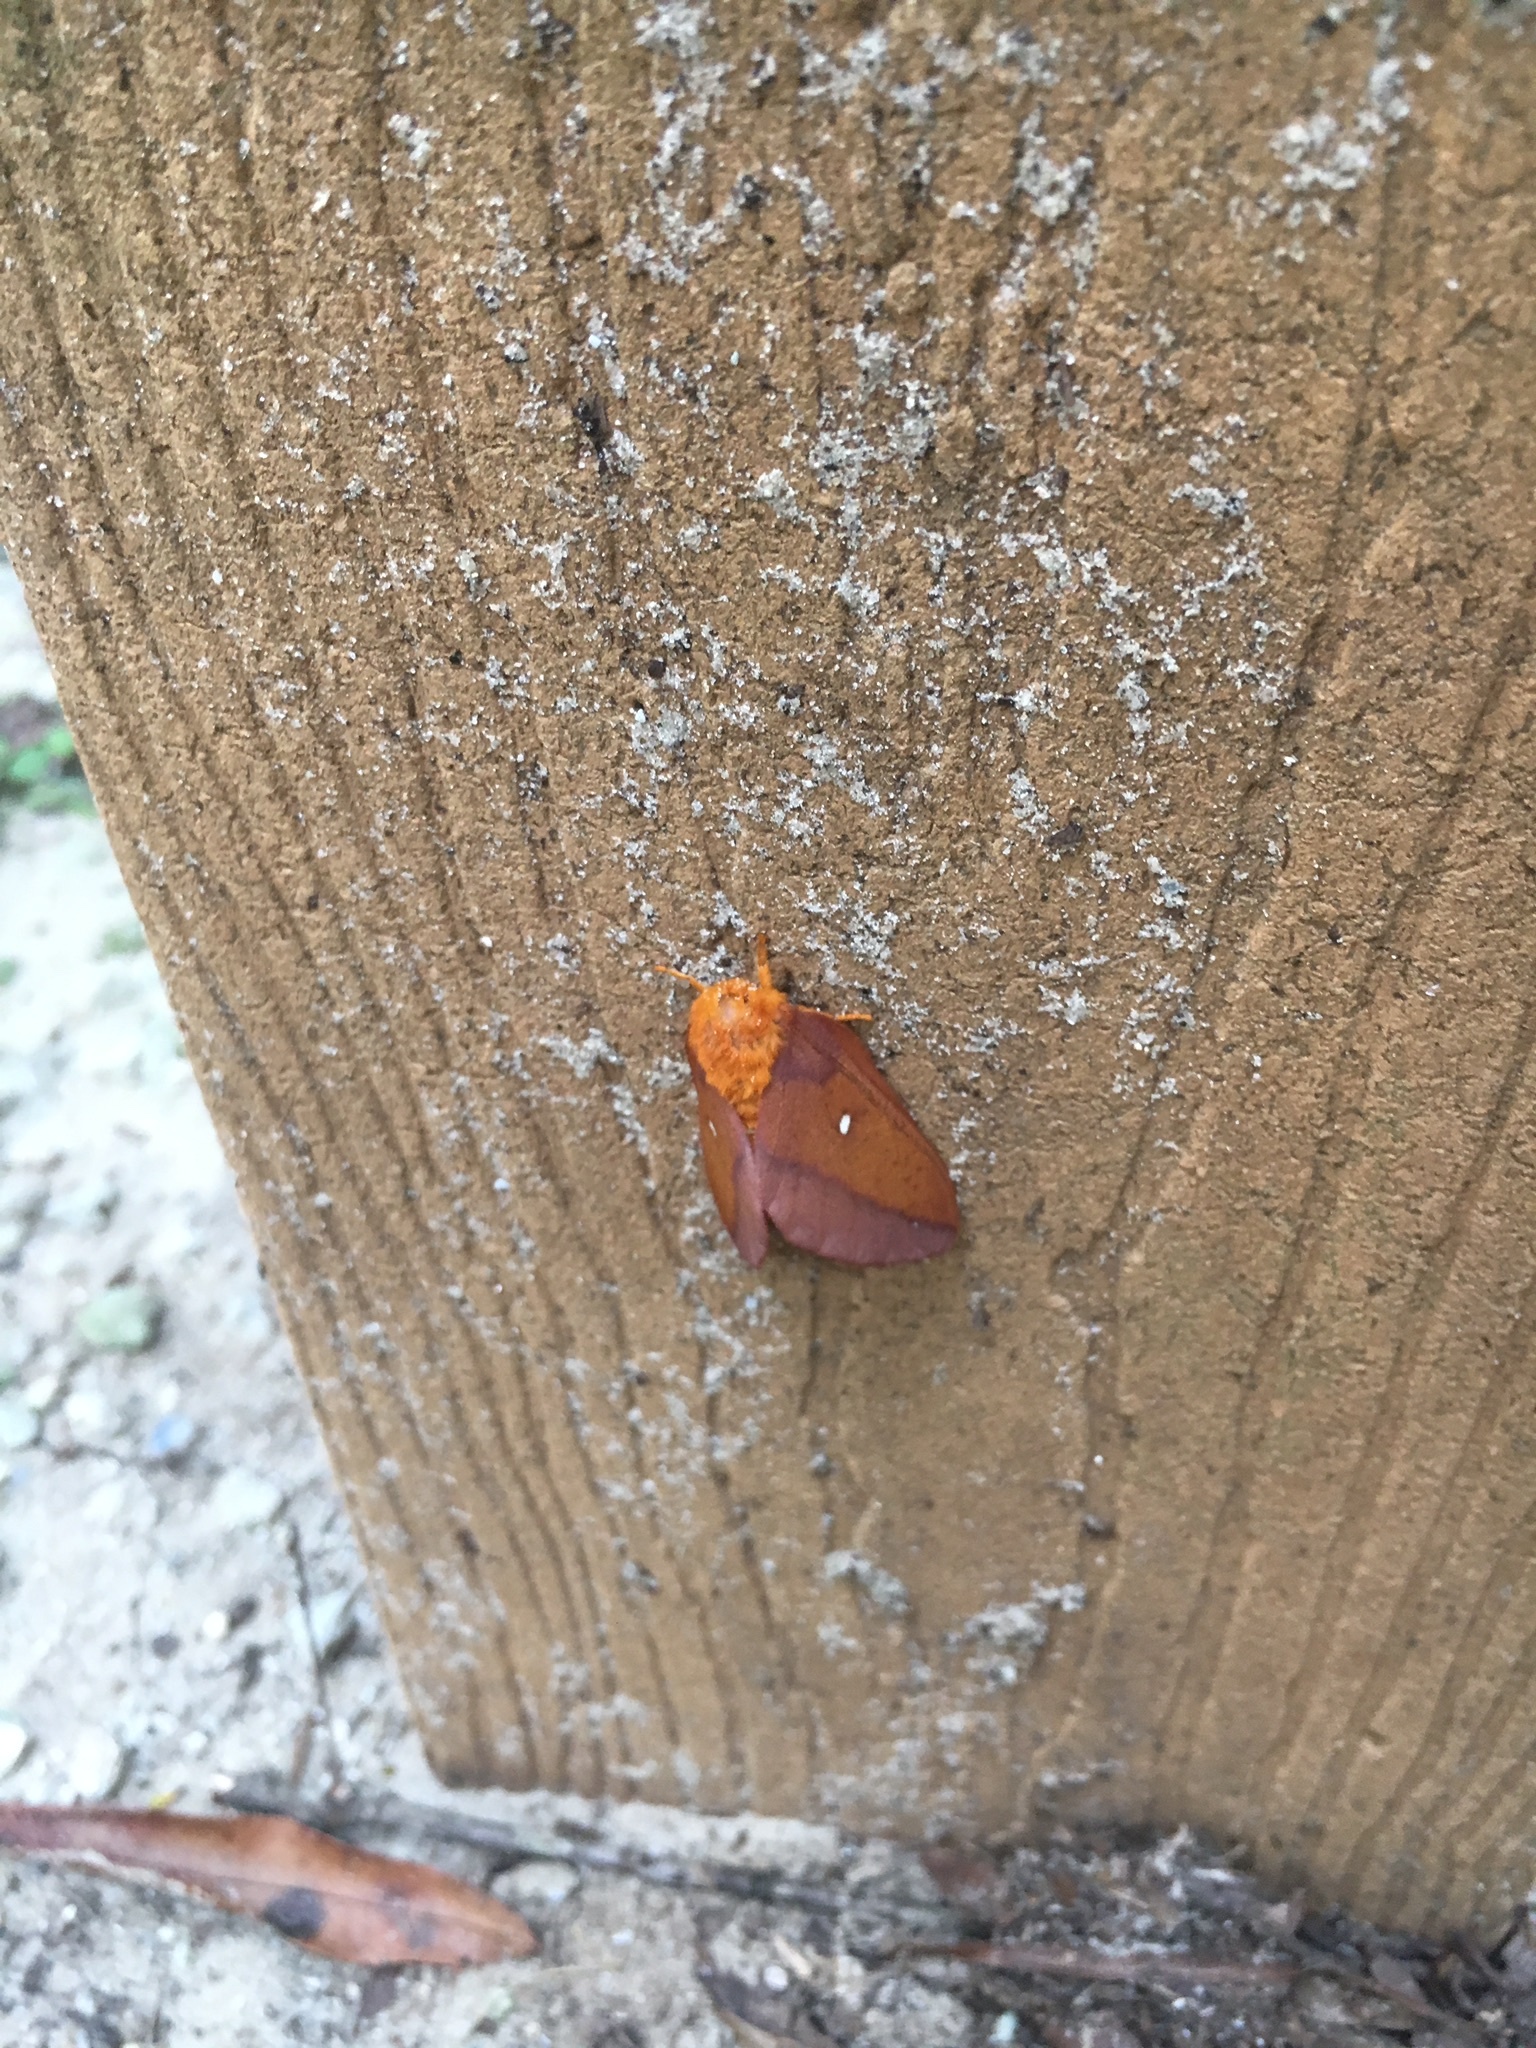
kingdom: Animalia
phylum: Arthropoda
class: Insecta
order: Lepidoptera
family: Saturniidae
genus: Anisota
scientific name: Anisota virginiensis
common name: Pink striped oakworm moth
